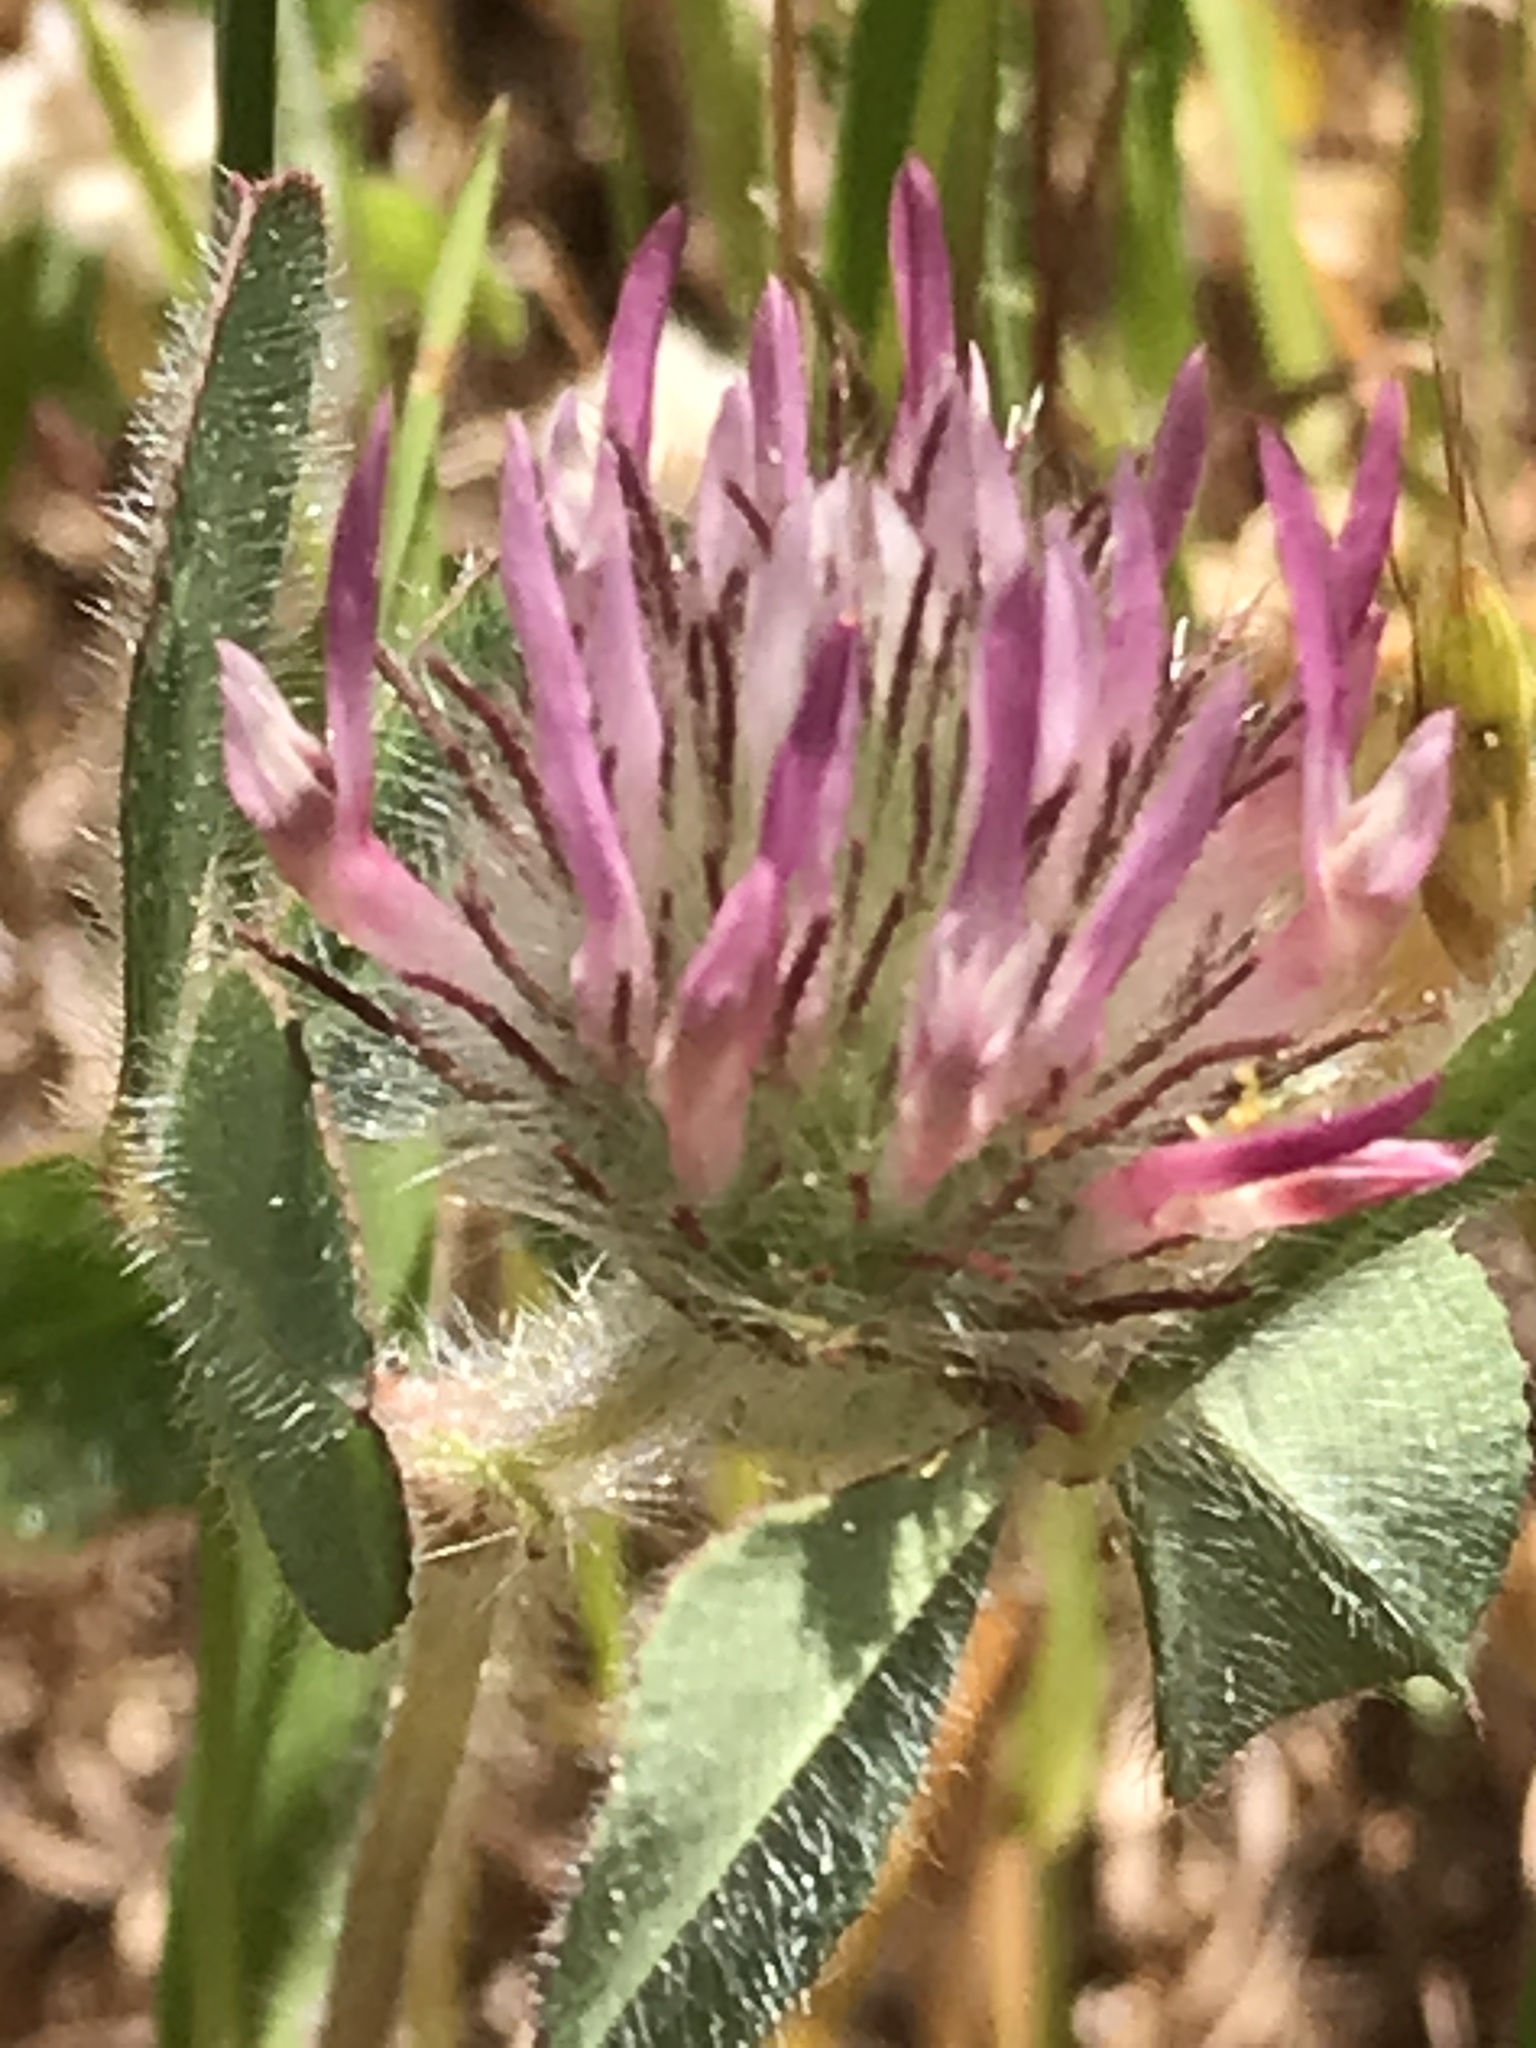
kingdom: Plantae
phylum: Tracheophyta
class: Magnoliopsida
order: Fabales
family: Fabaceae
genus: Trifolium
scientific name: Trifolium hirtum
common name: Rose clover
